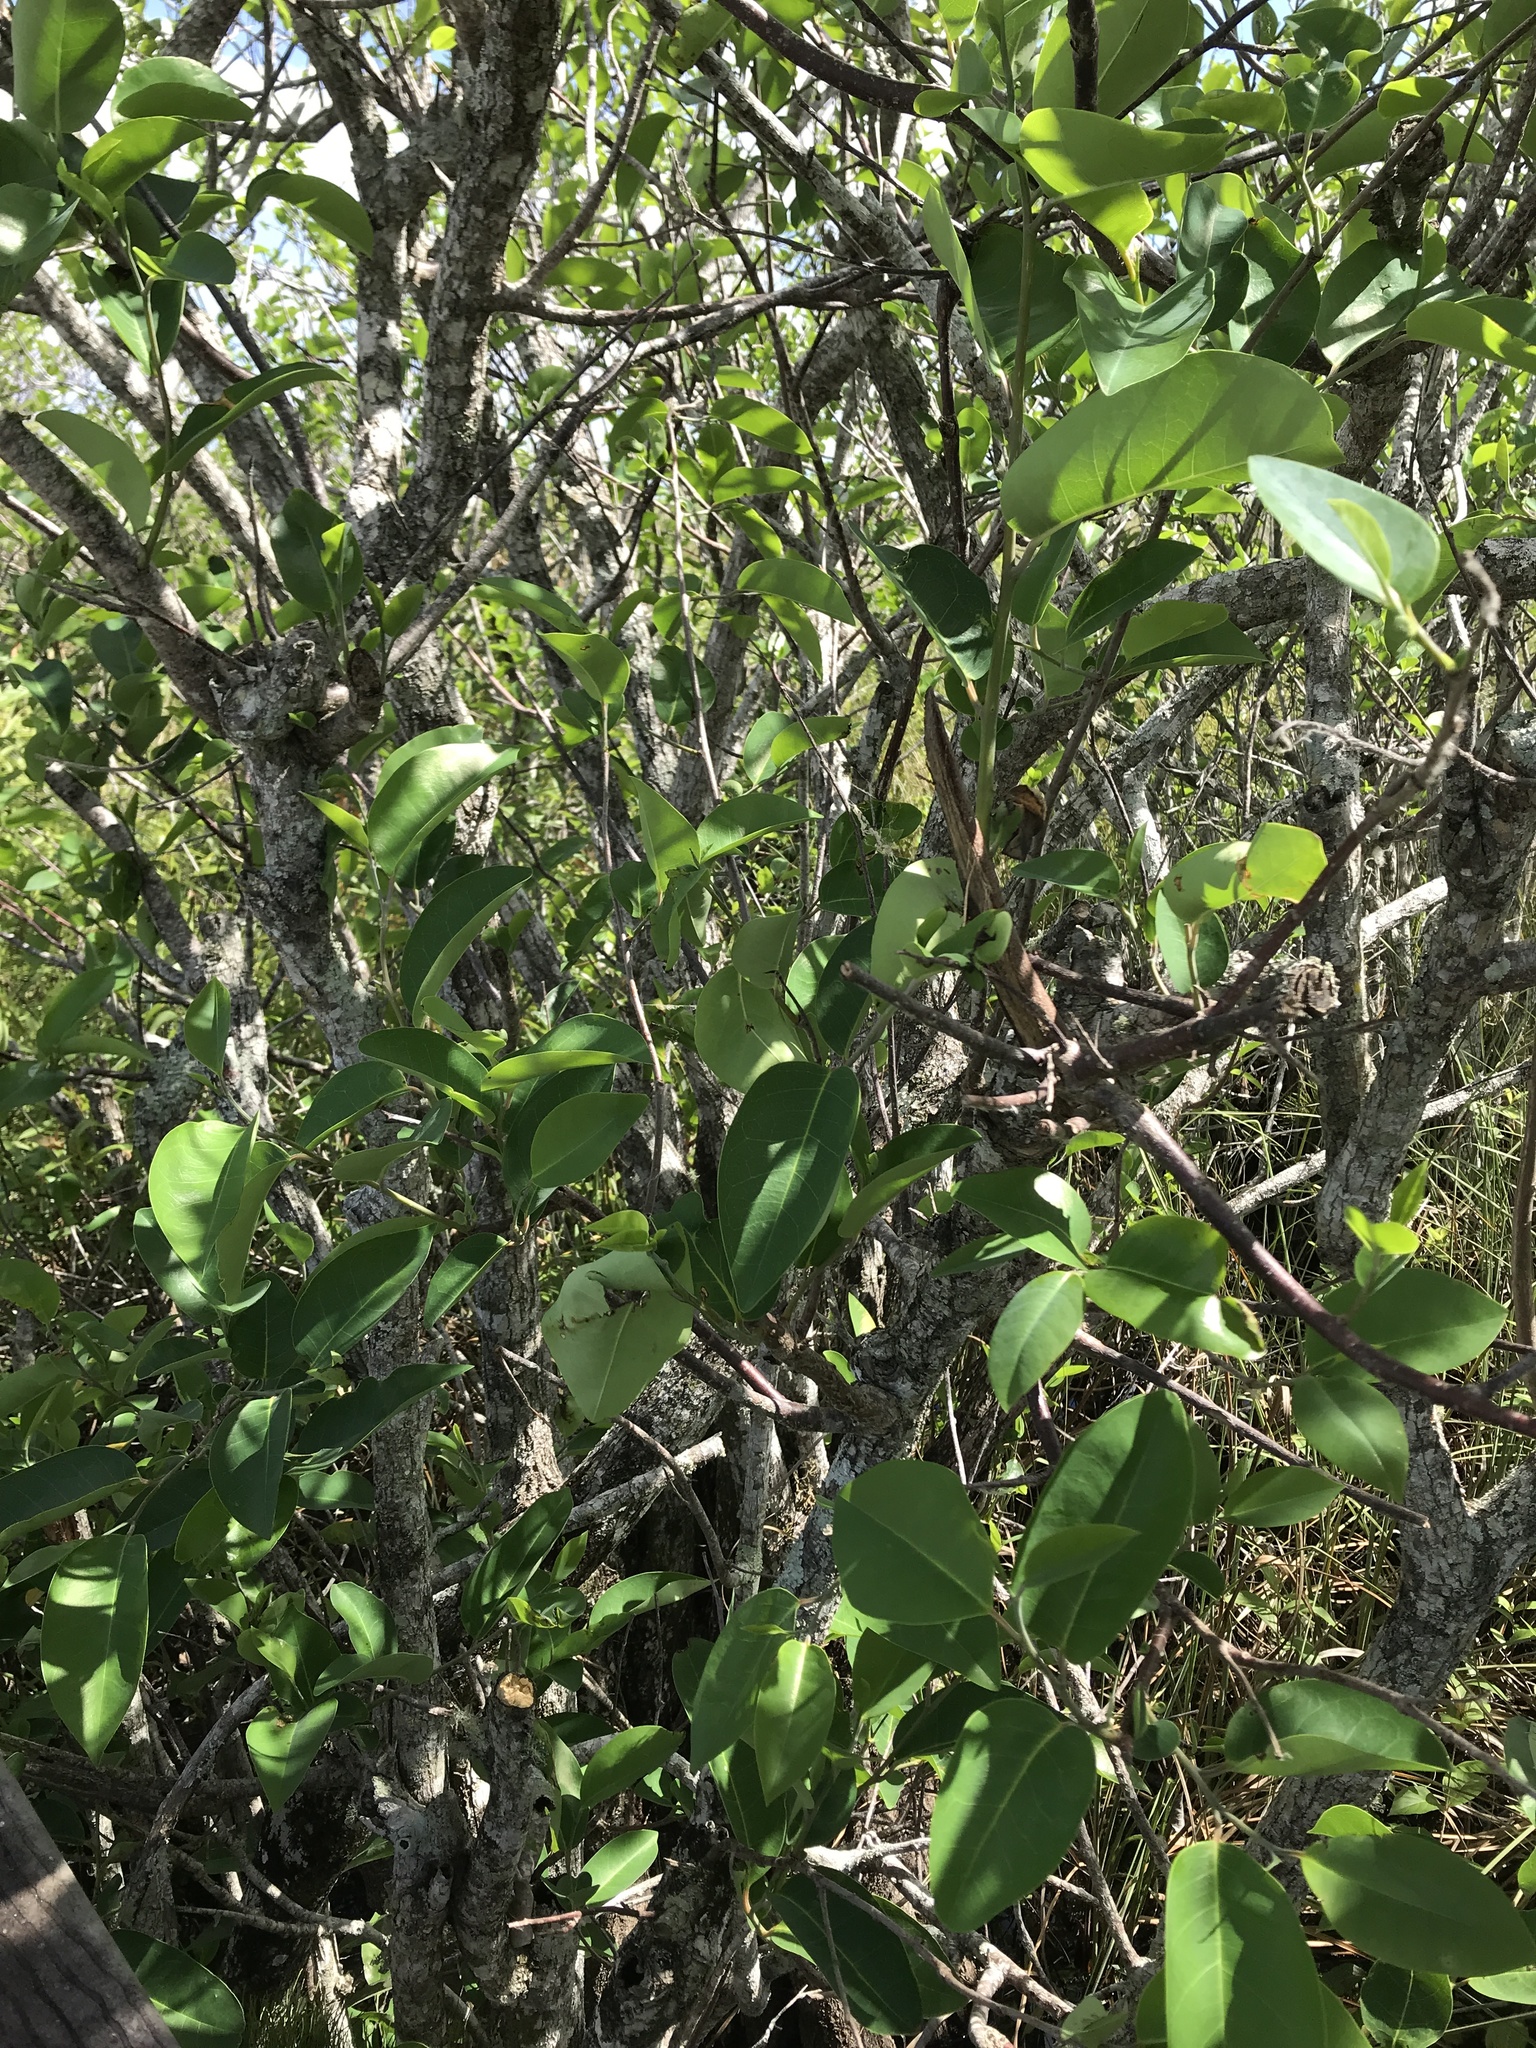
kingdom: Plantae
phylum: Tracheophyta
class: Magnoliopsida
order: Magnoliales
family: Annonaceae
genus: Annona
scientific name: Annona glabra
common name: Monkey apple
